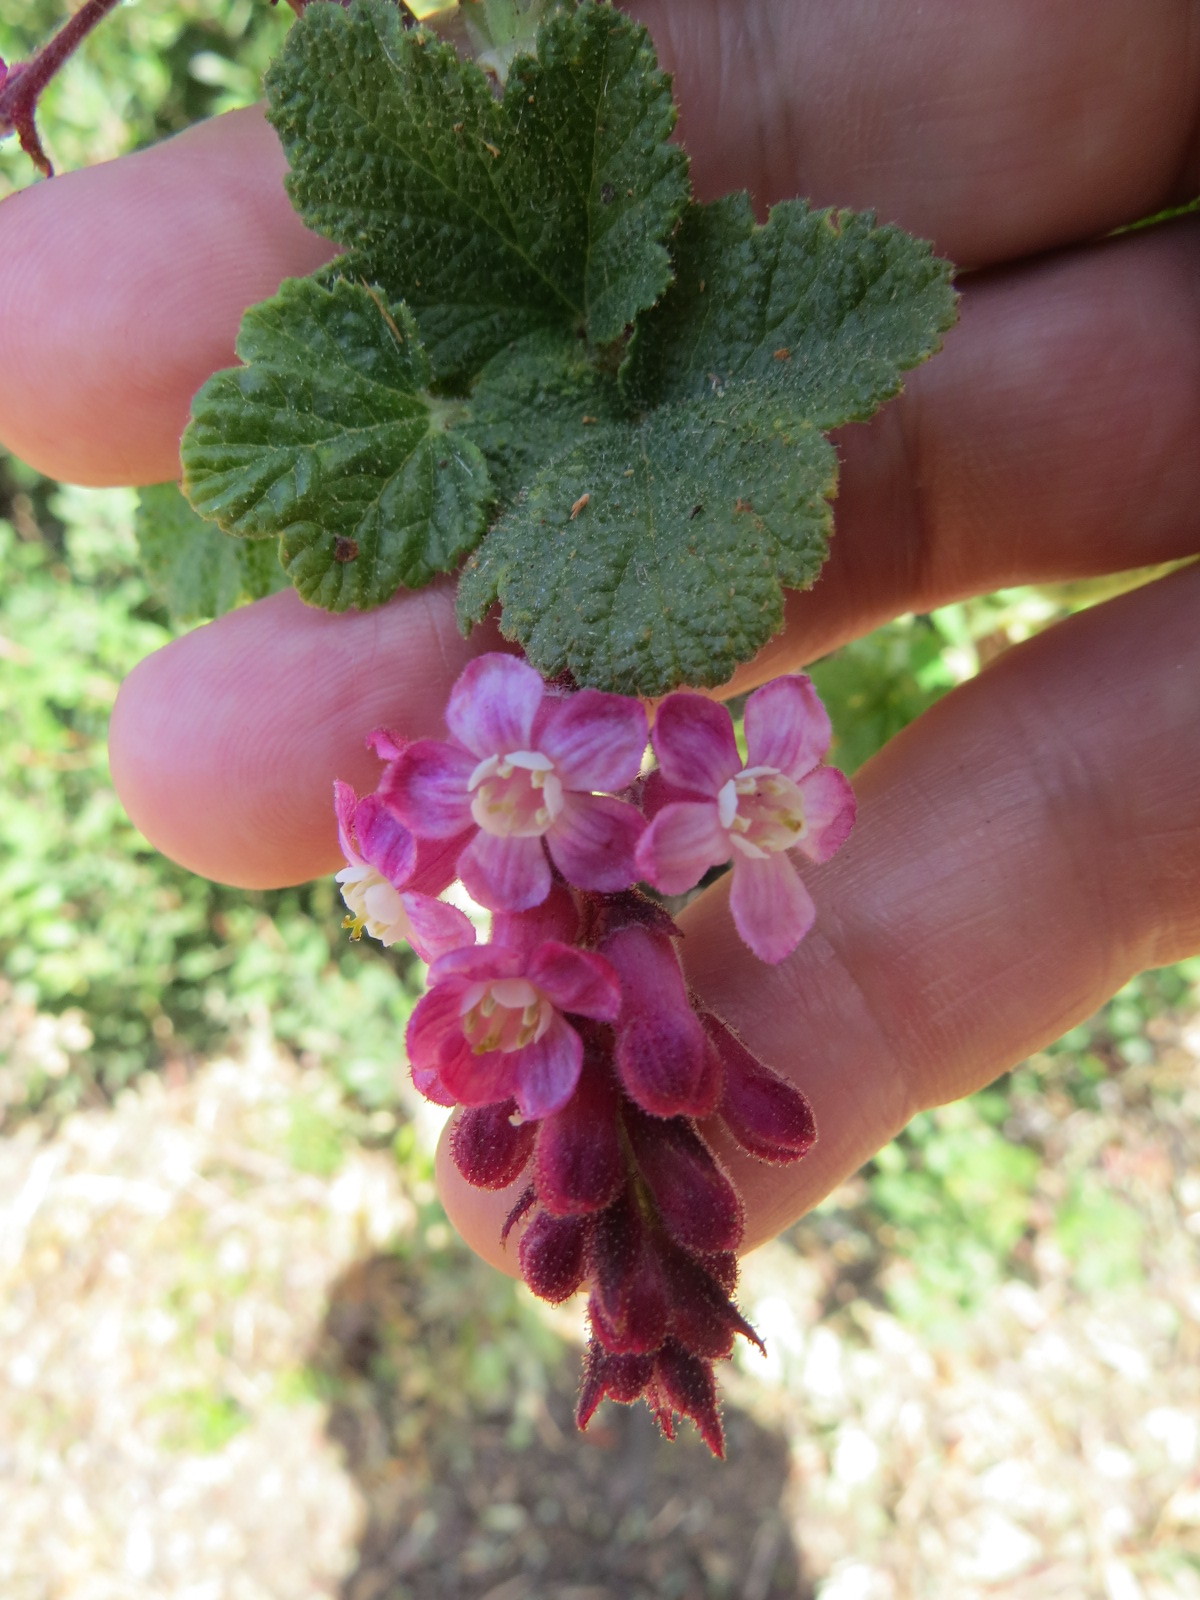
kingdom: Plantae
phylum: Tracheophyta
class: Magnoliopsida
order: Saxifragales
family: Grossulariaceae
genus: Ribes
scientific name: Ribes malvaceum
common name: Chaparral currant
